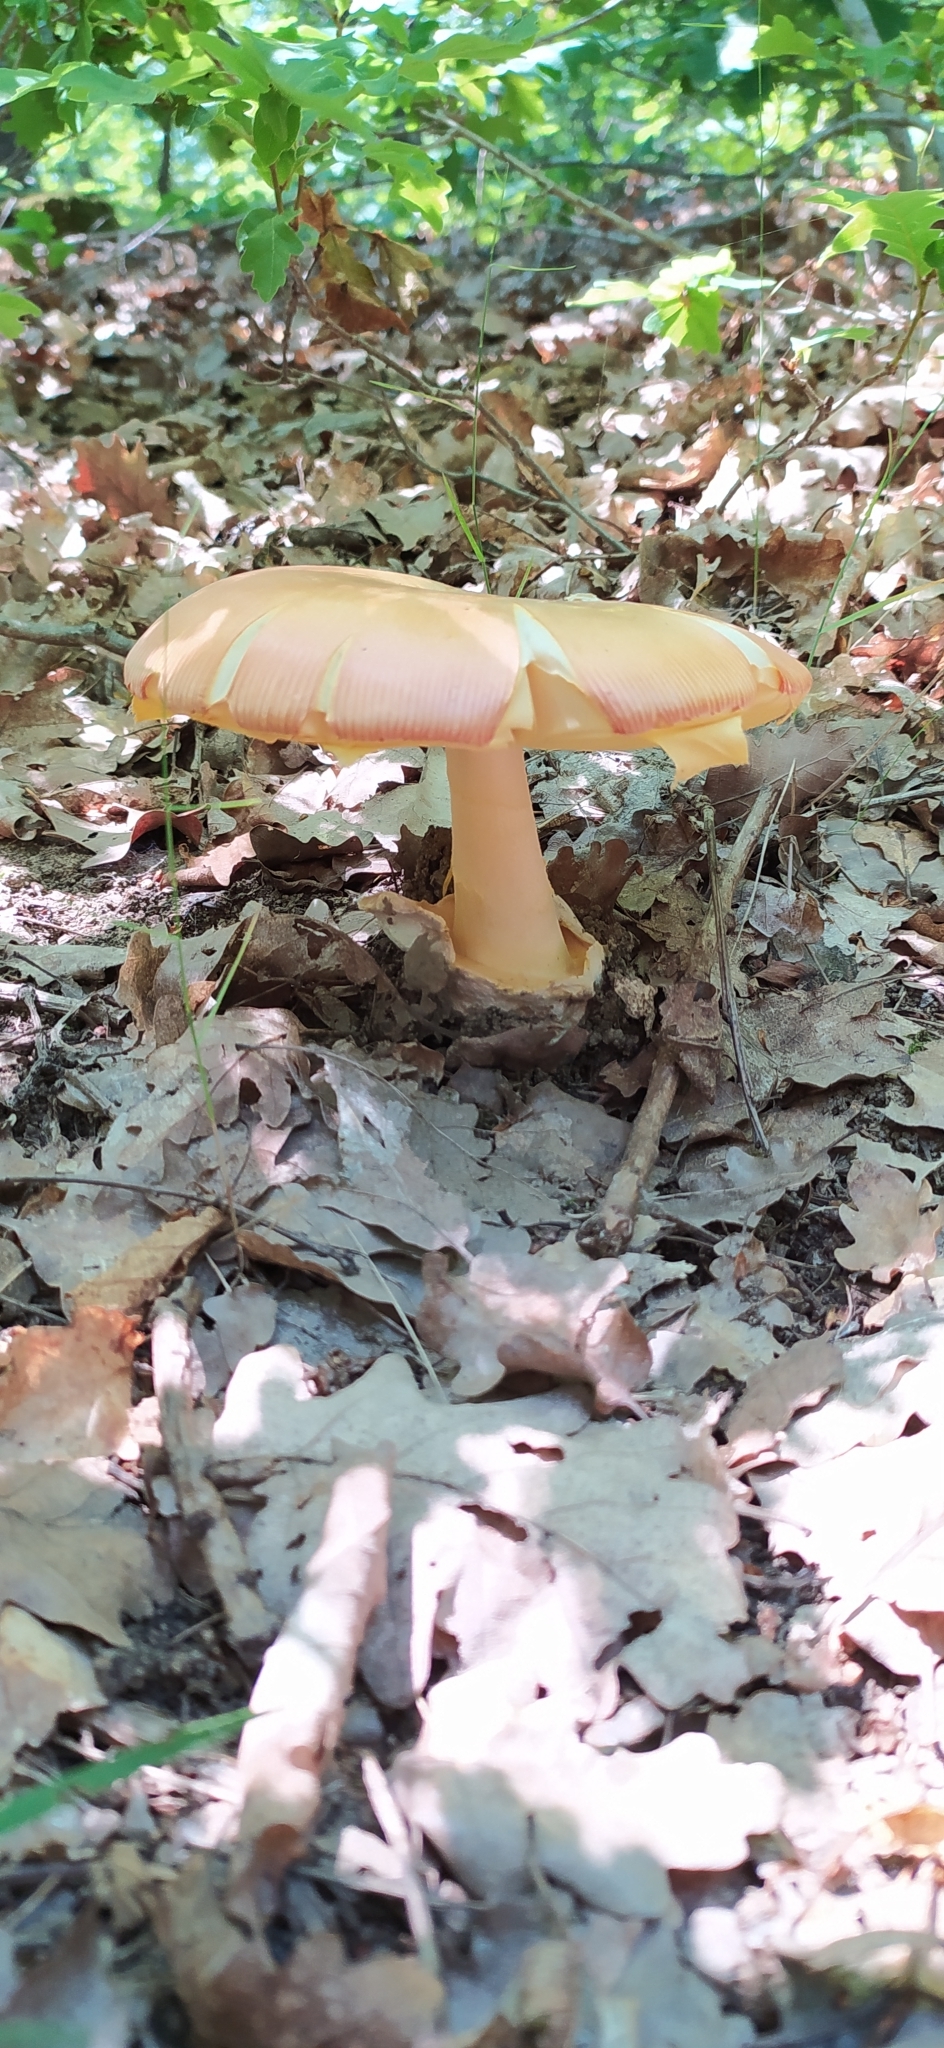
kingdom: Fungi
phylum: Basidiomycota
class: Agaricomycetes
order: Agaricales
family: Amanitaceae
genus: Amanita
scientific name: Amanita caesarea
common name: Caesar's amanita
